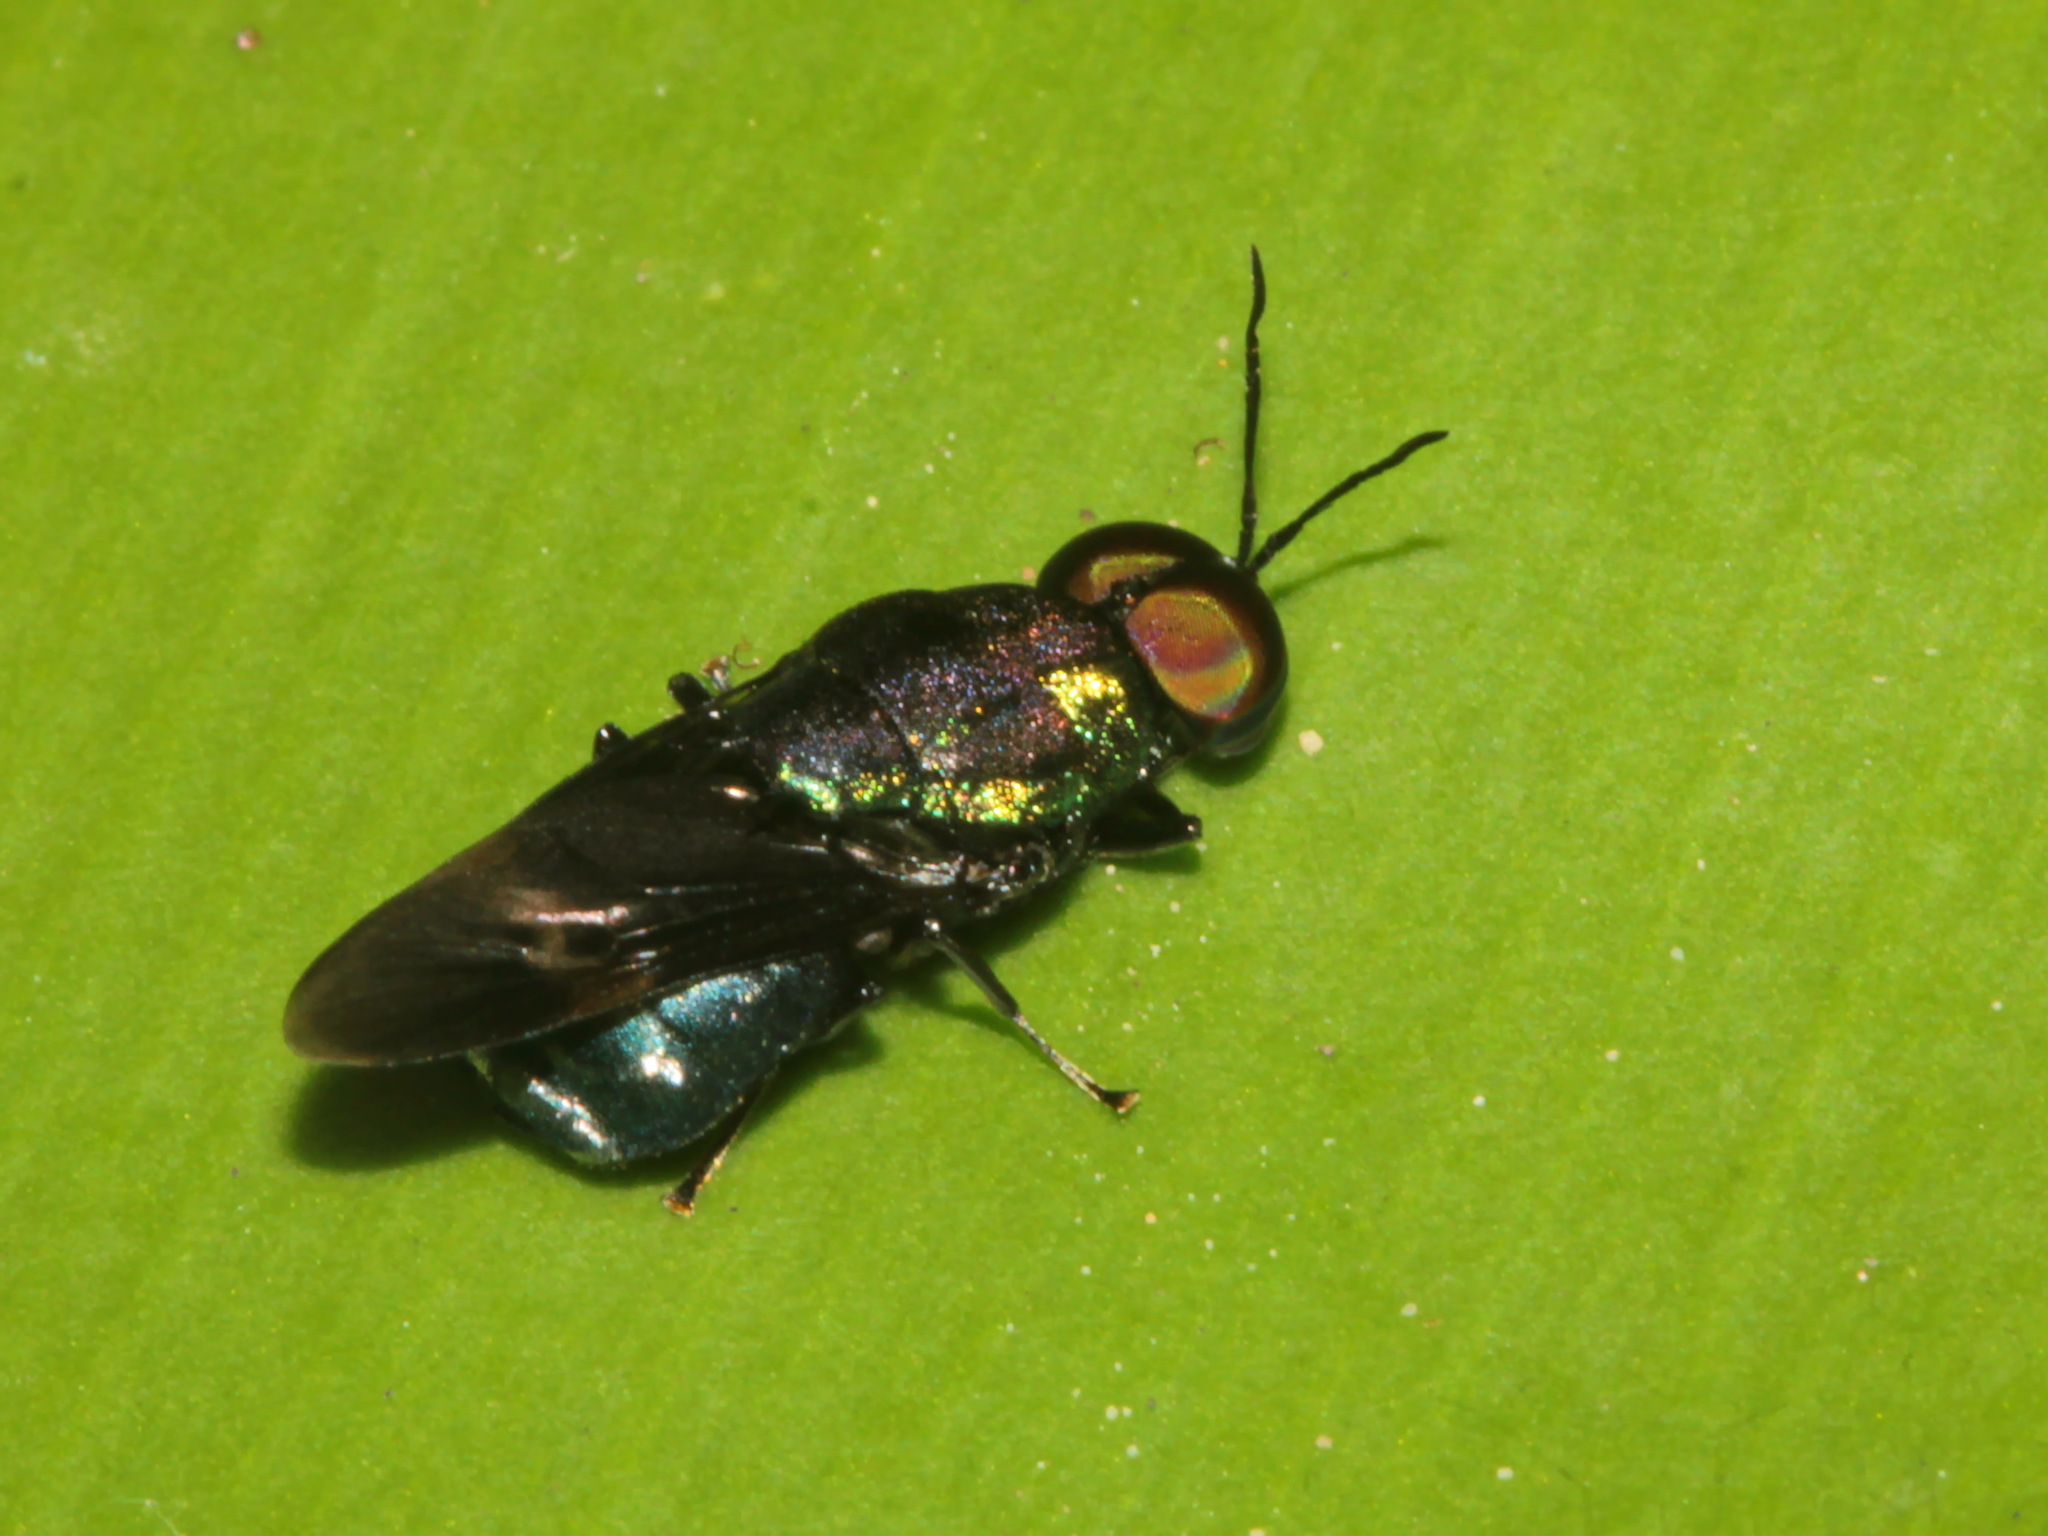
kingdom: Animalia
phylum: Arthropoda
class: Insecta
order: Diptera
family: Stratiomyidae
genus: Ptilocera
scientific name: Ptilocera quadridentata
